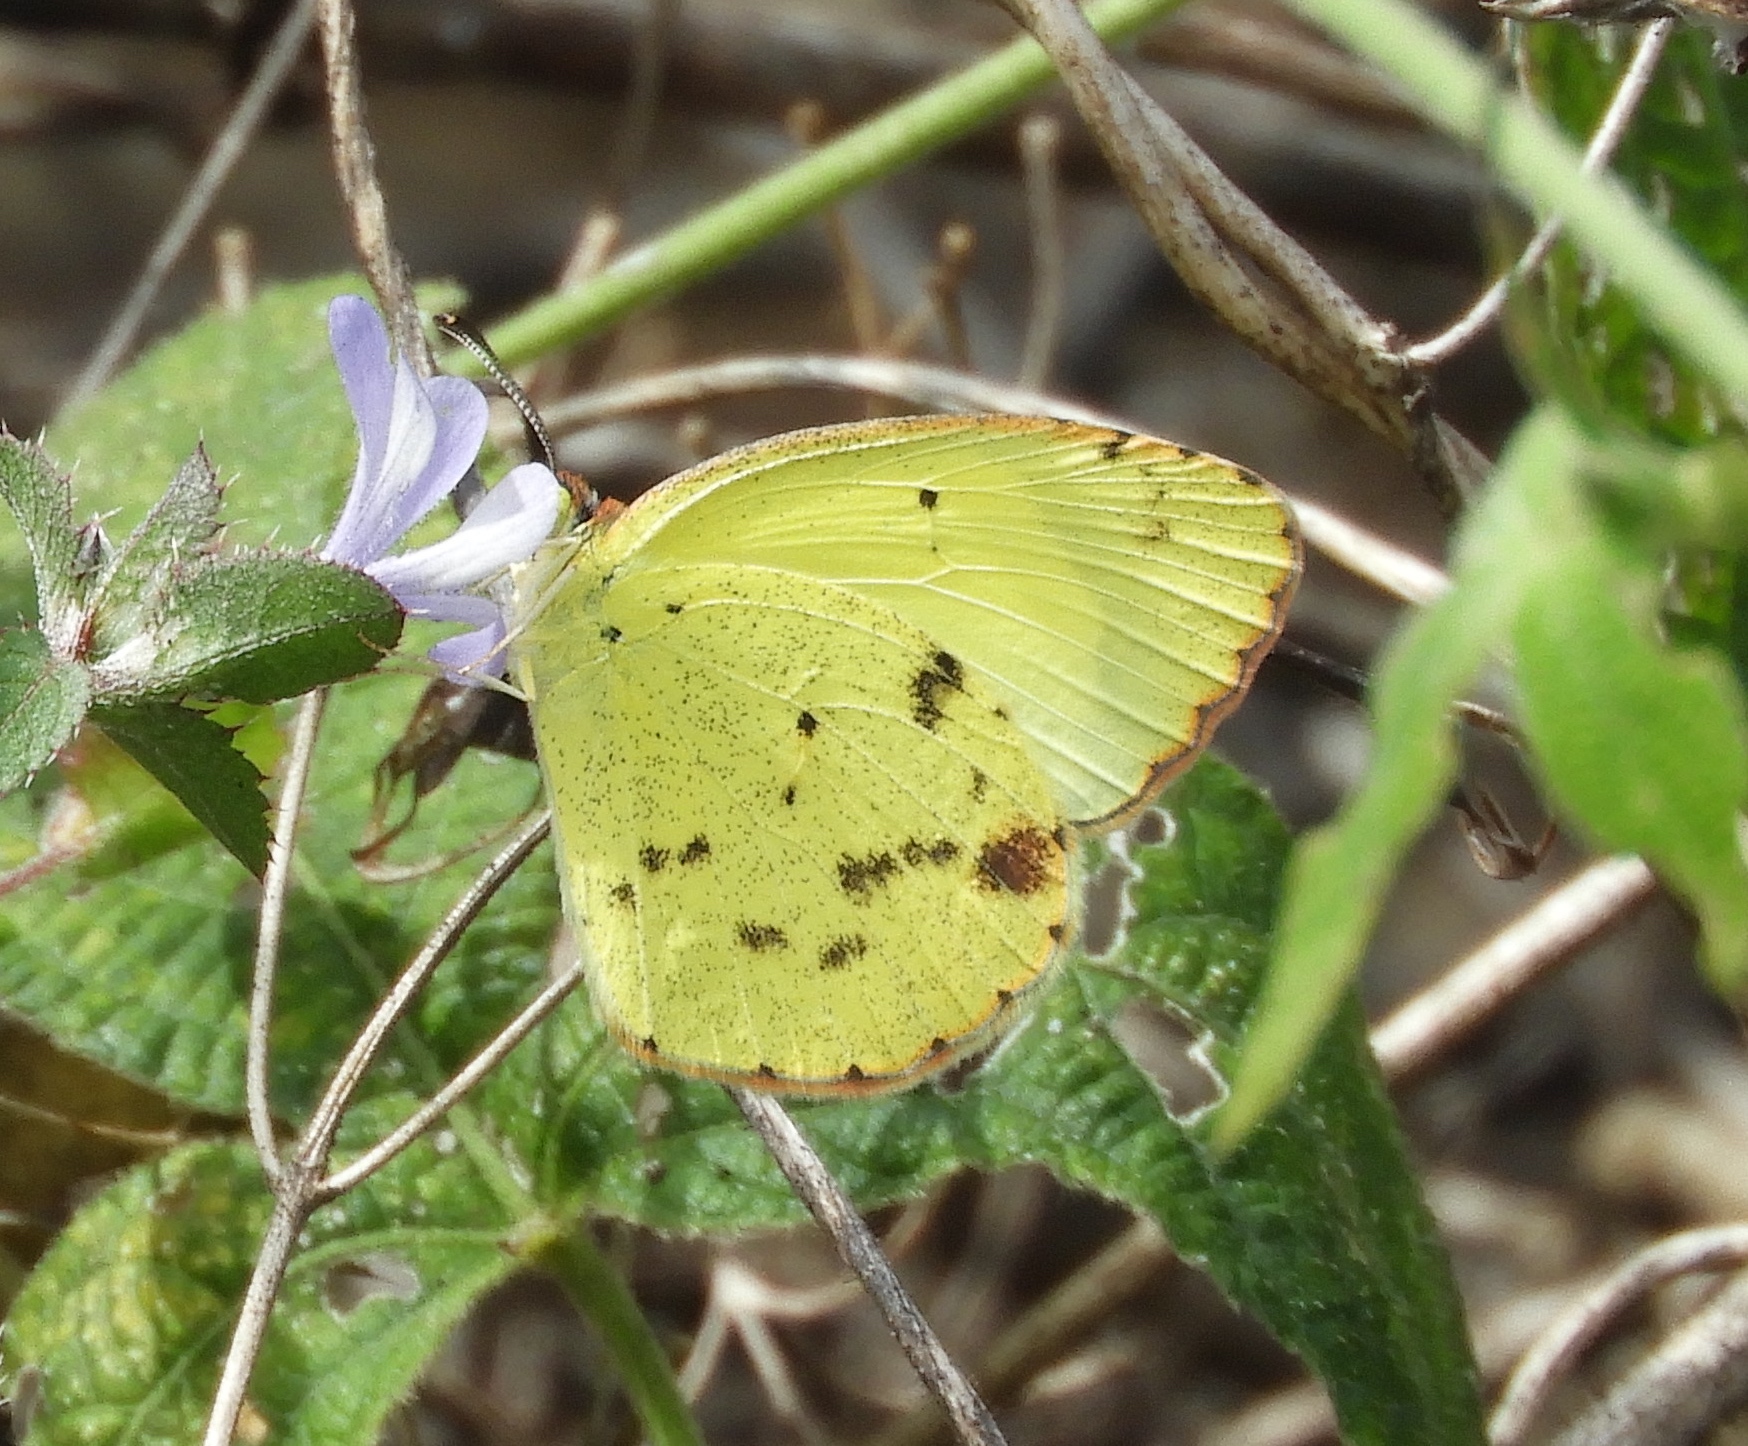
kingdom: Animalia
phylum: Arthropoda
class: Insecta
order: Lepidoptera
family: Pieridae
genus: Pyrisitia
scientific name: Pyrisitia lisa
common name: Little yellow
